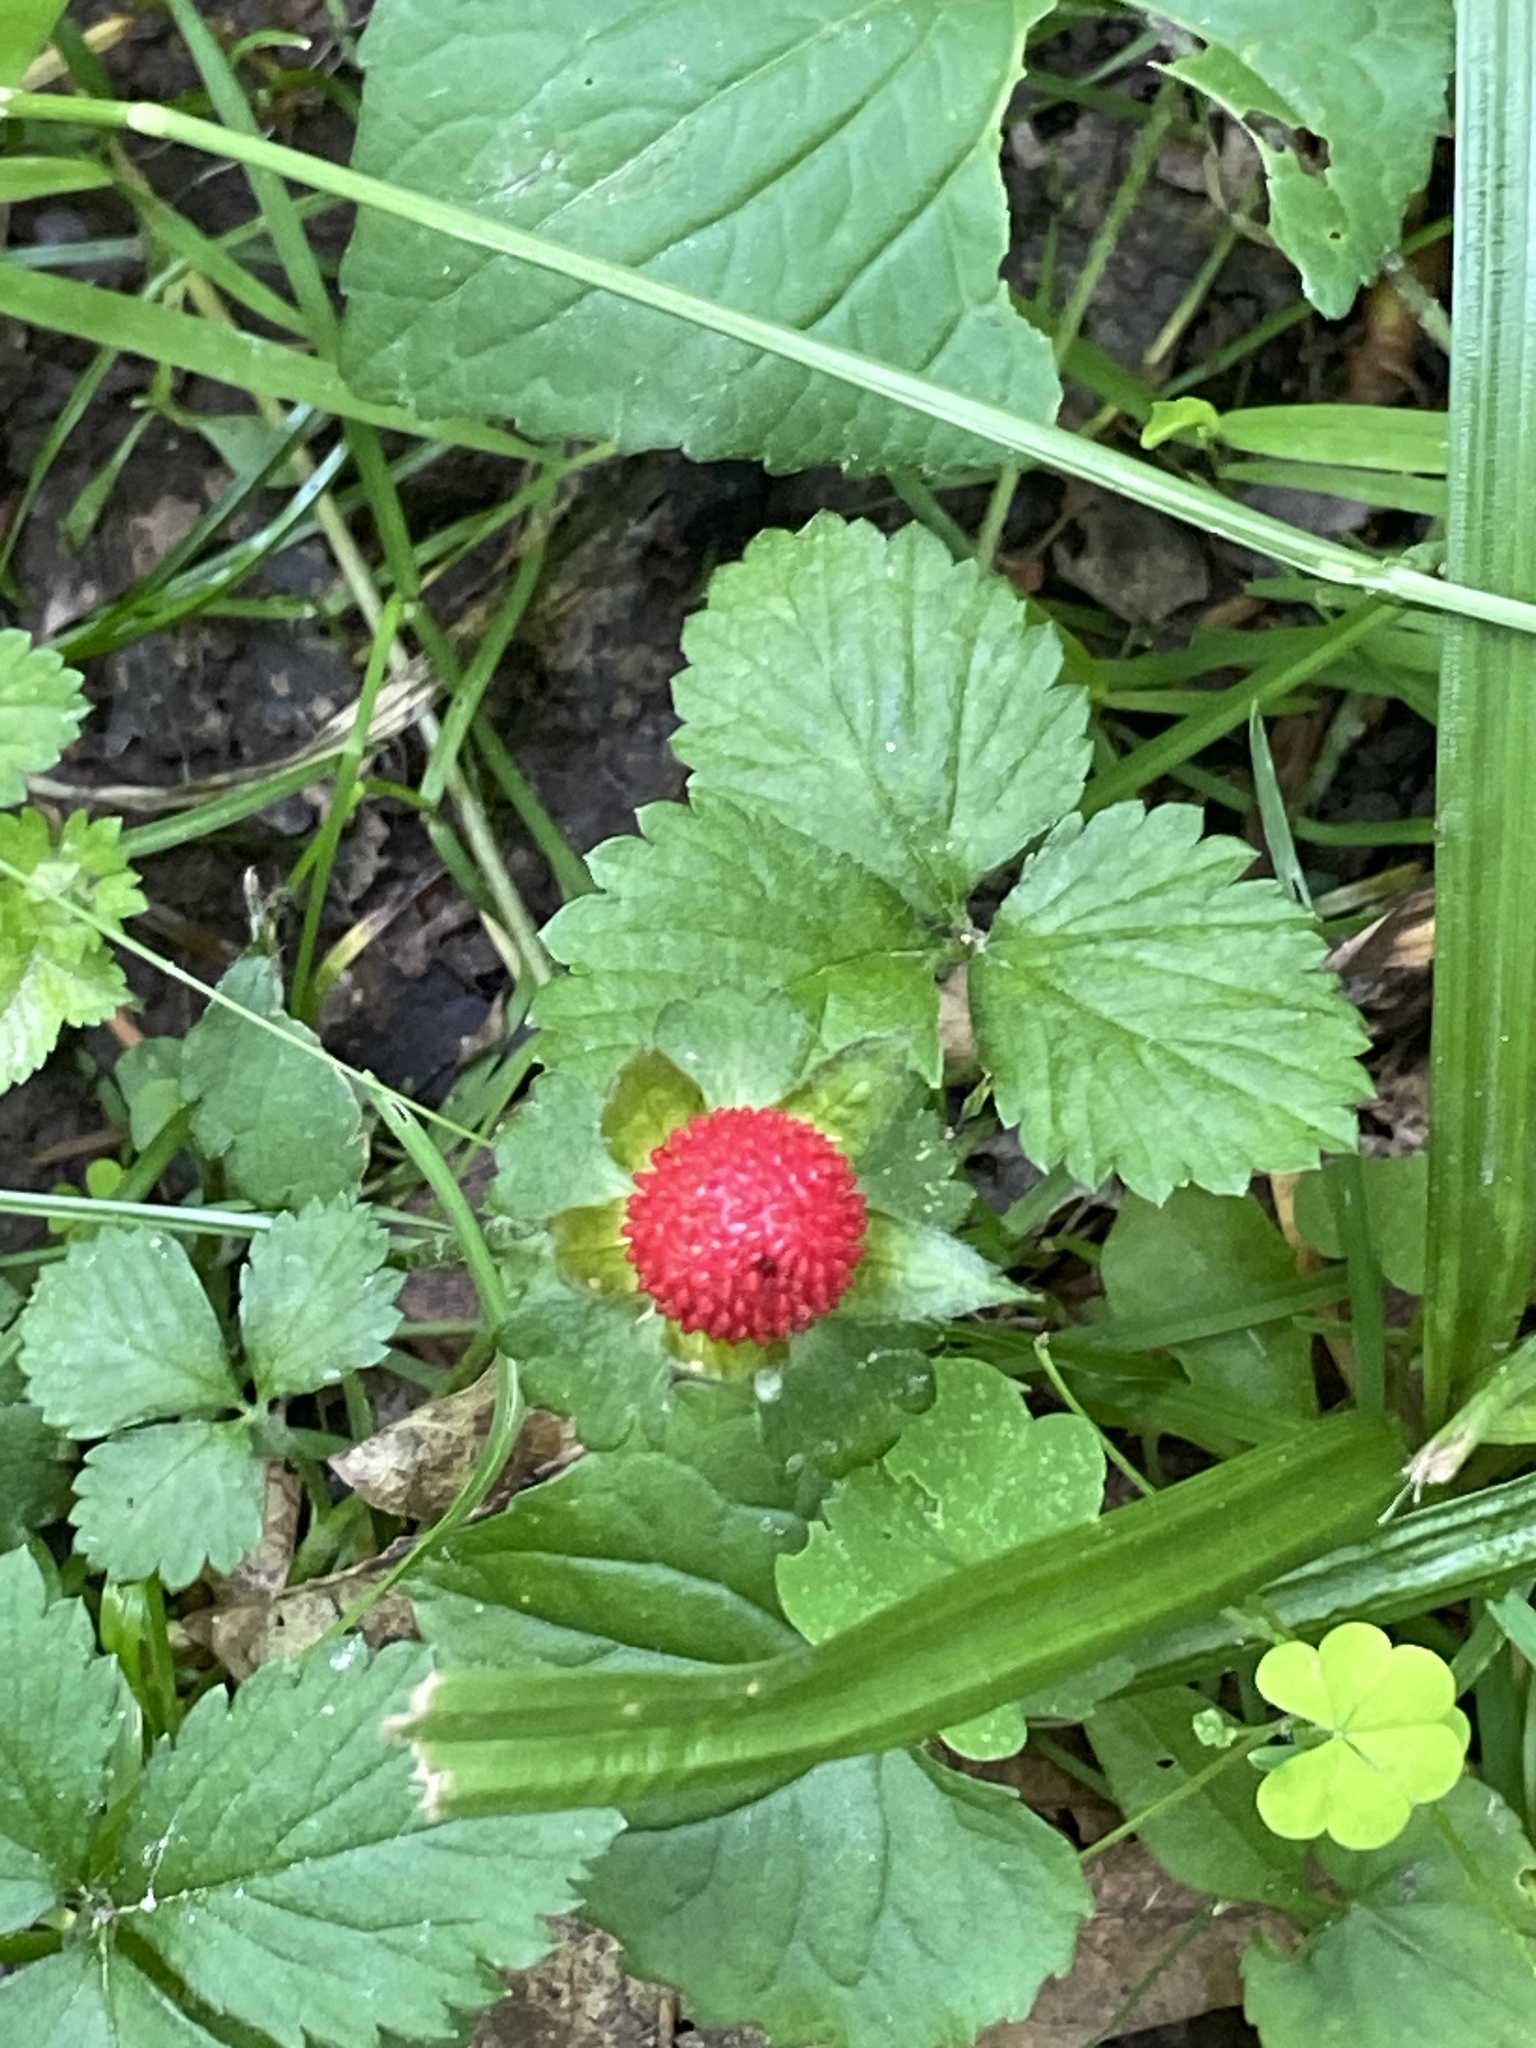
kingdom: Plantae
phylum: Tracheophyta
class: Magnoliopsida
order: Rosales
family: Rosaceae
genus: Potentilla
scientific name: Potentilla indica
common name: Yellow-flowered strawberry
